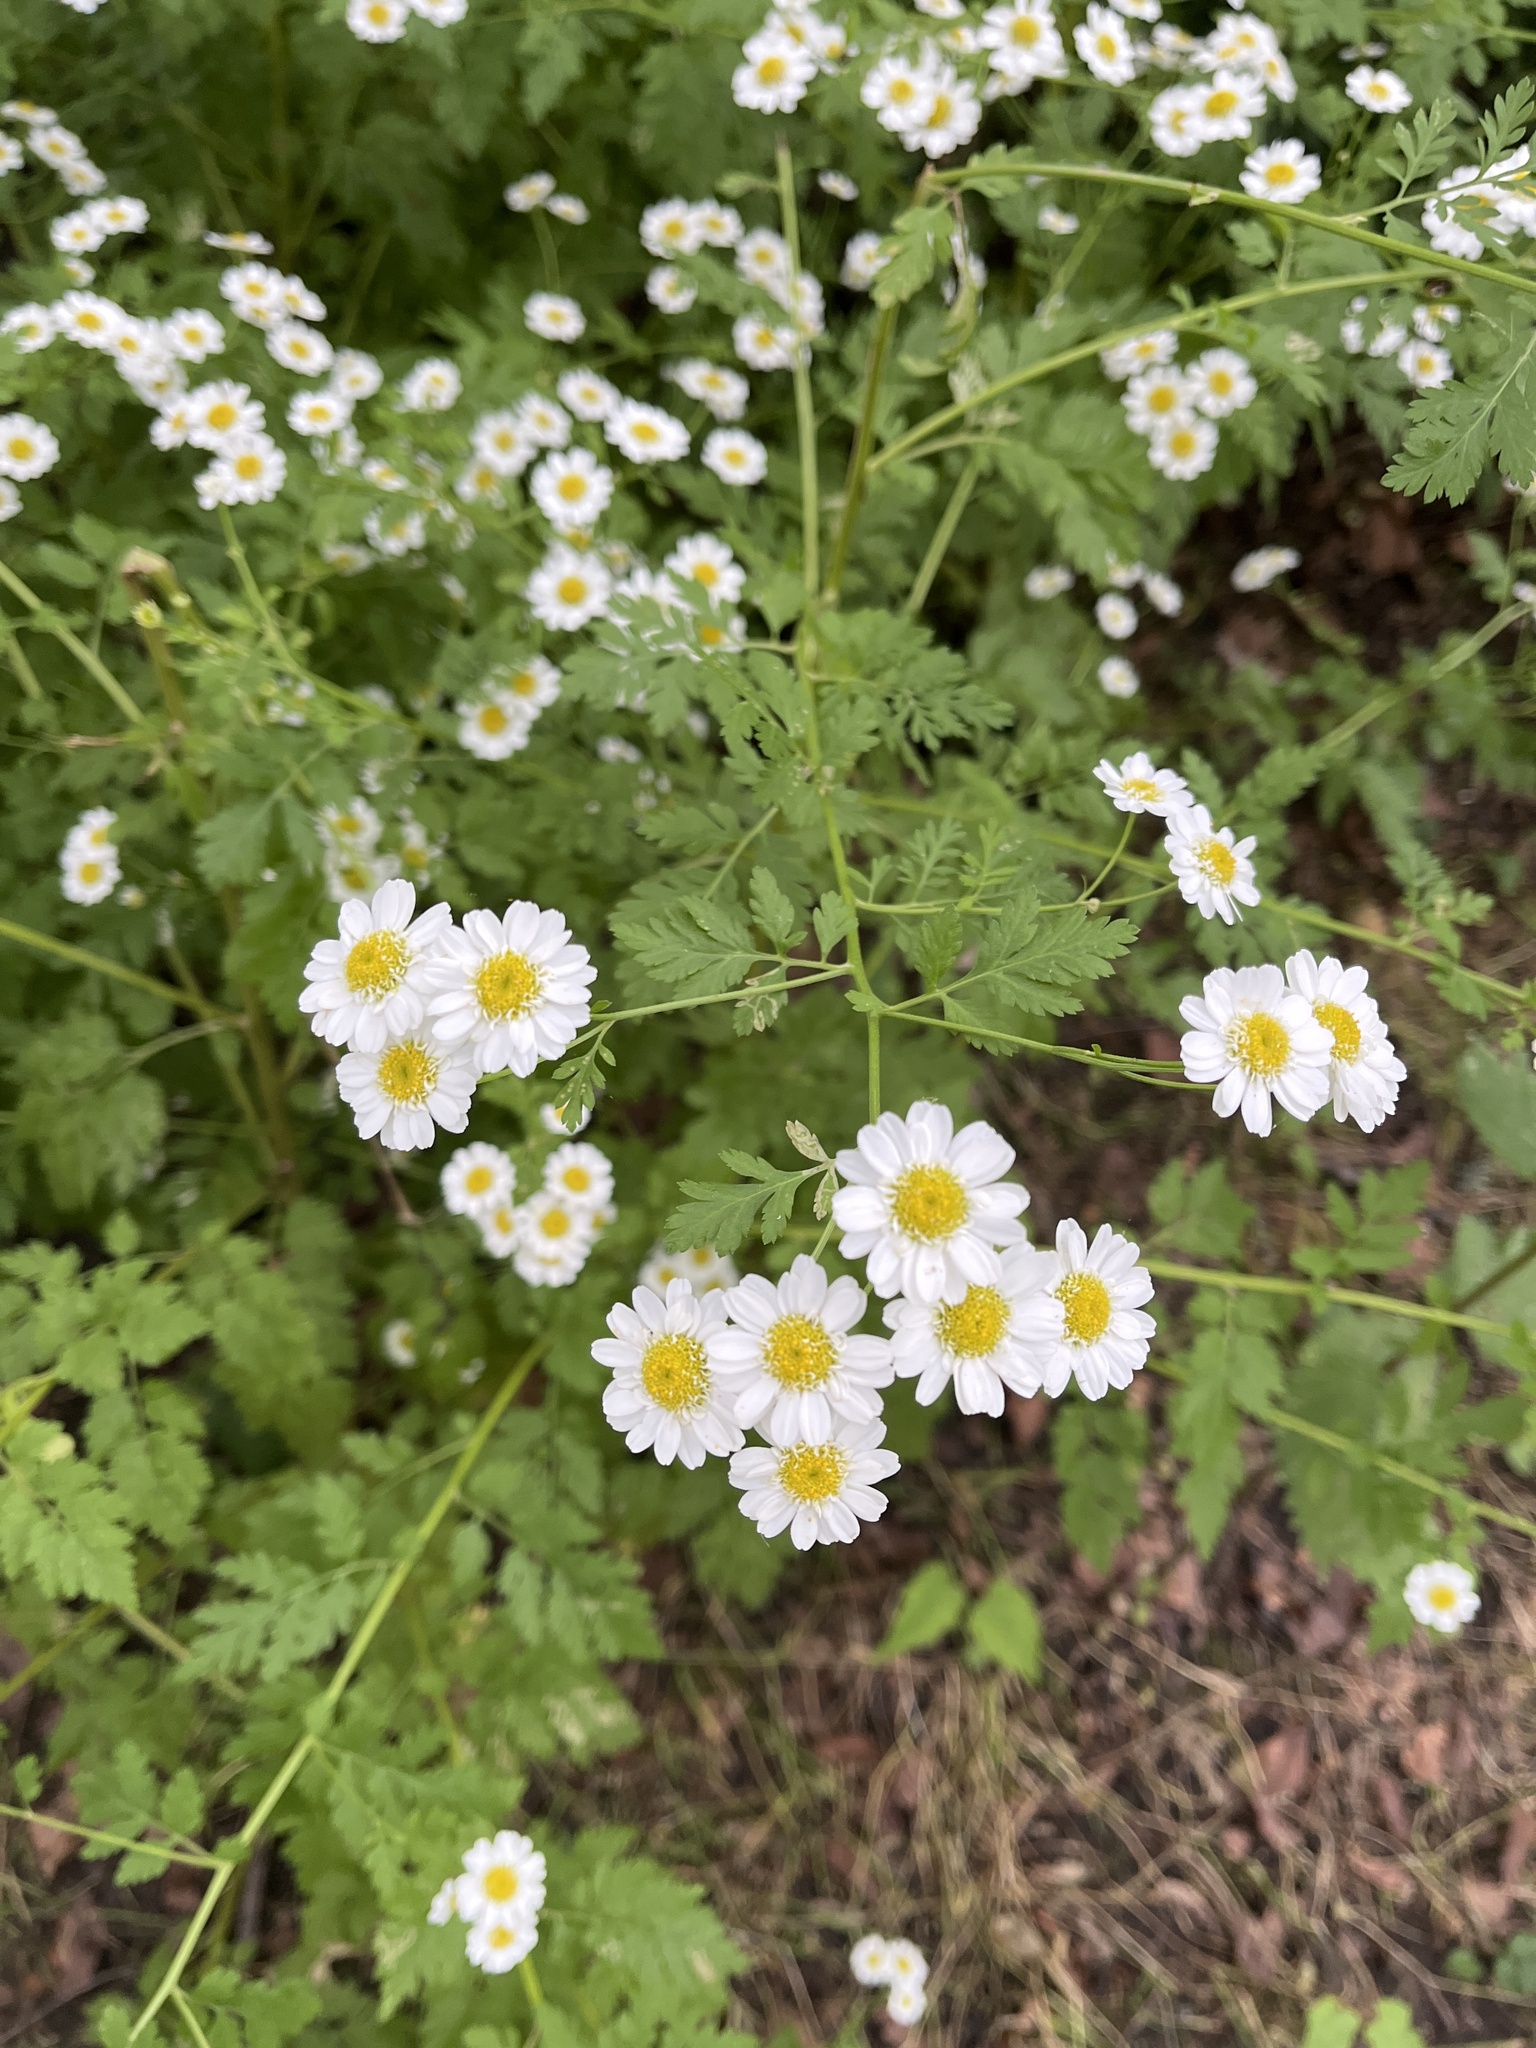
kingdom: Plantae
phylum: Tracheophyta
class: Magnoliopsida
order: Asterales
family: Asteraceae
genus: Tanacetum
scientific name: Tanacetum parthenium
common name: Feverfew
